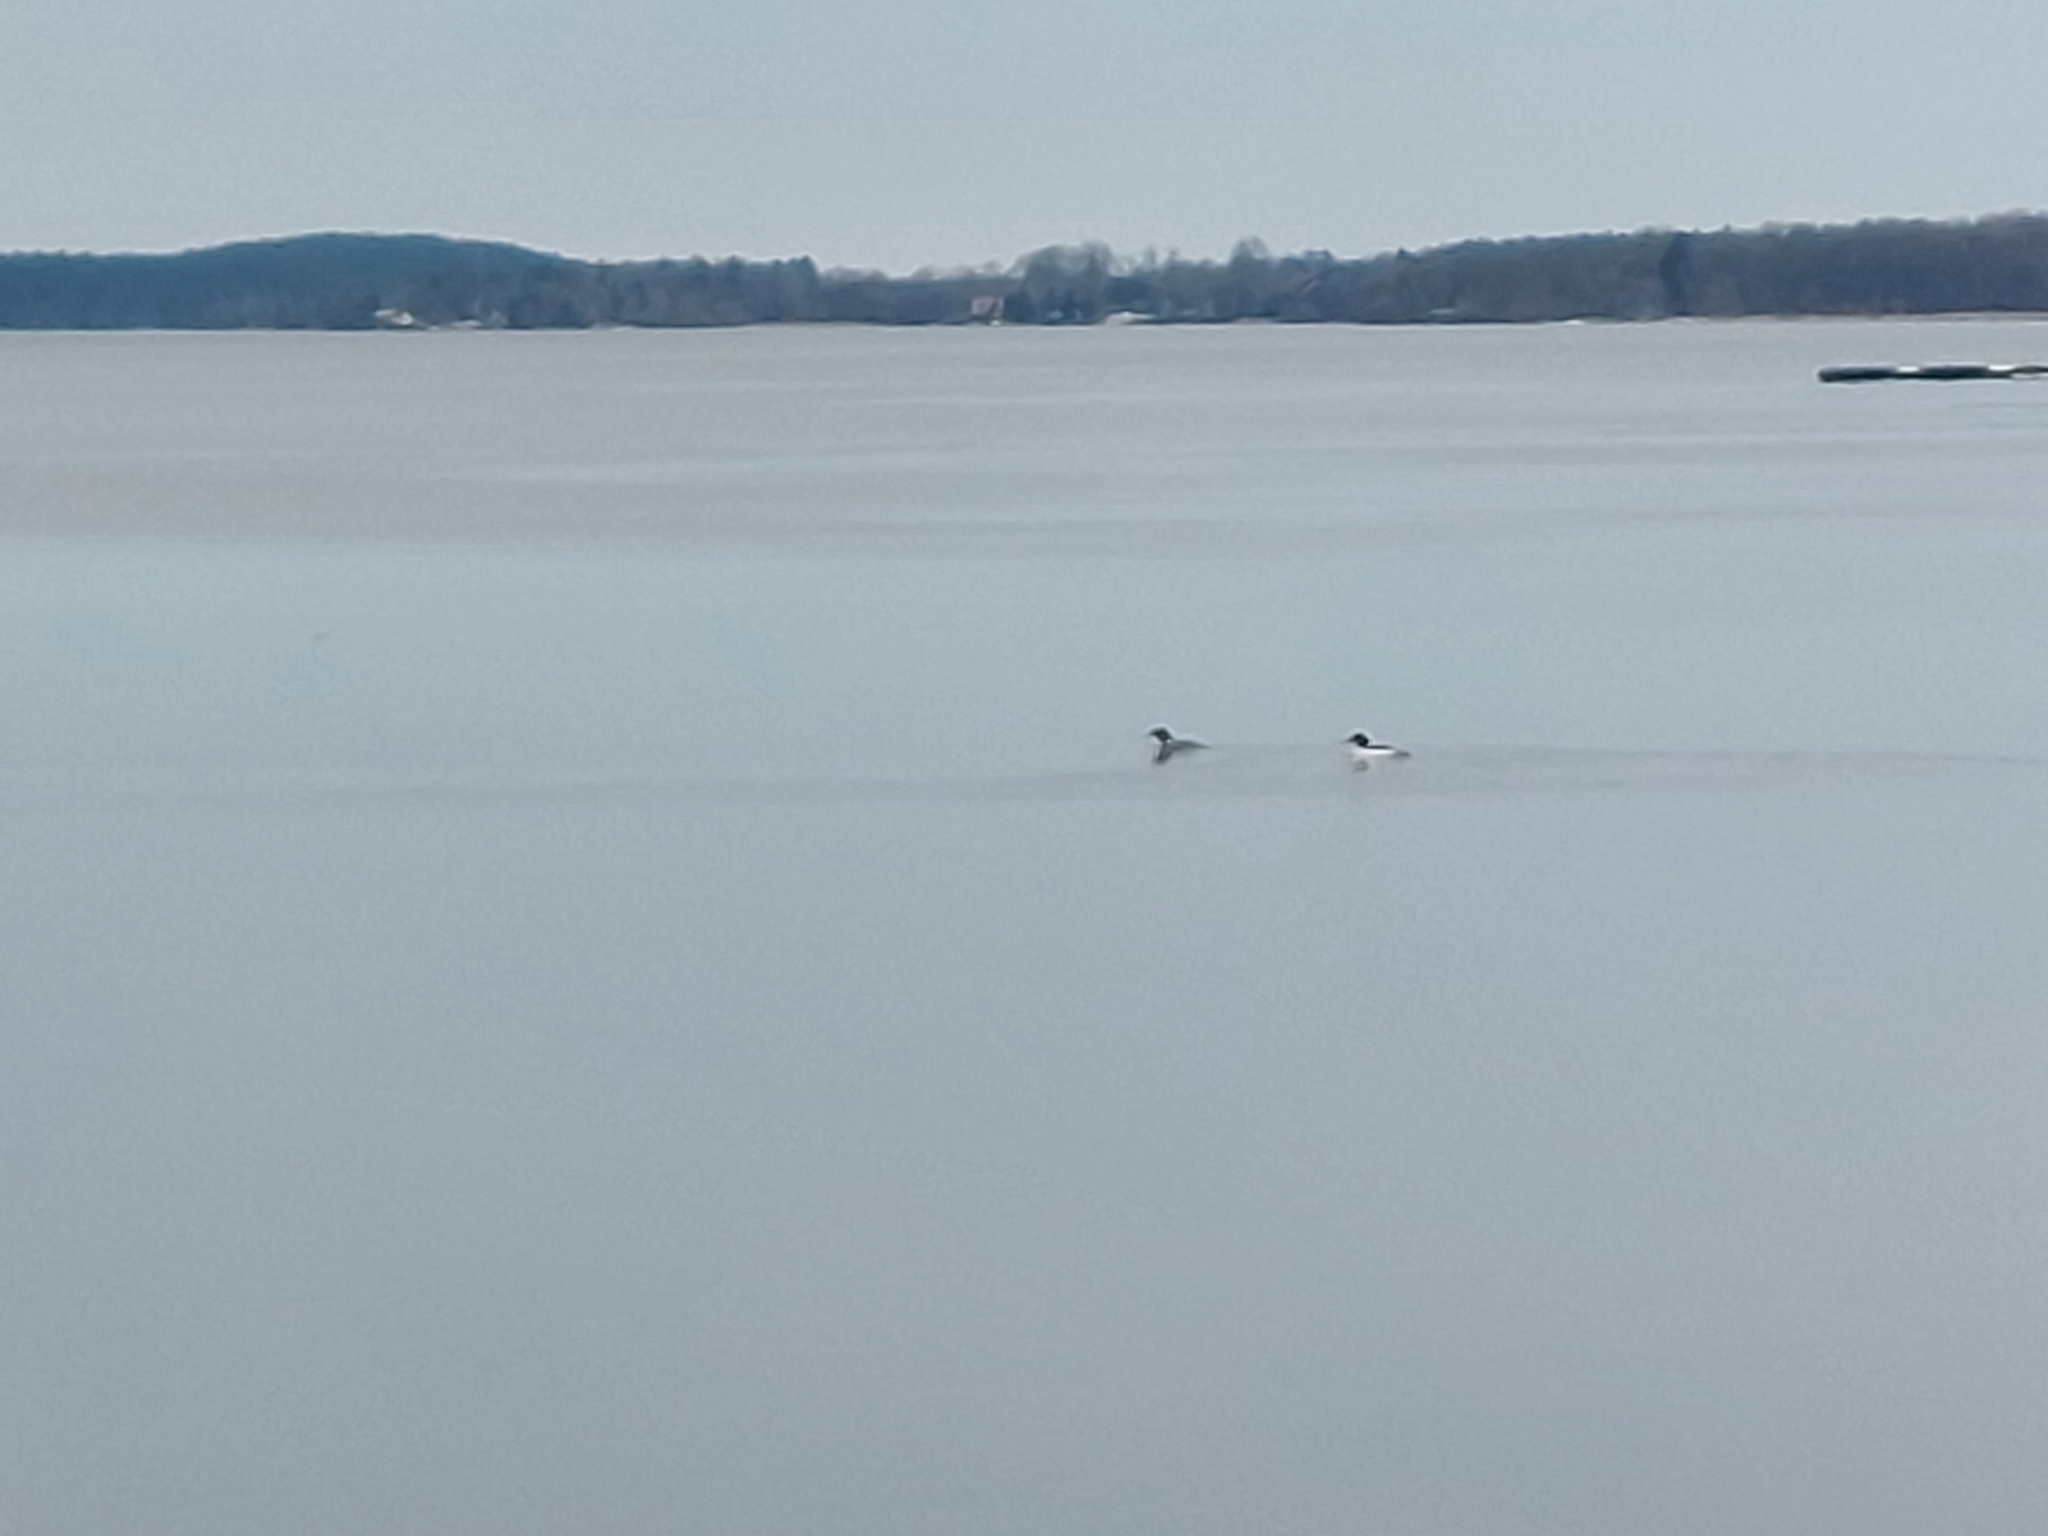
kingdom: Animalia
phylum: Chordata
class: Aves
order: Anseriformes
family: Anatidae
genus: Mergus
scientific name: Mergus merganser
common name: Common merganser
